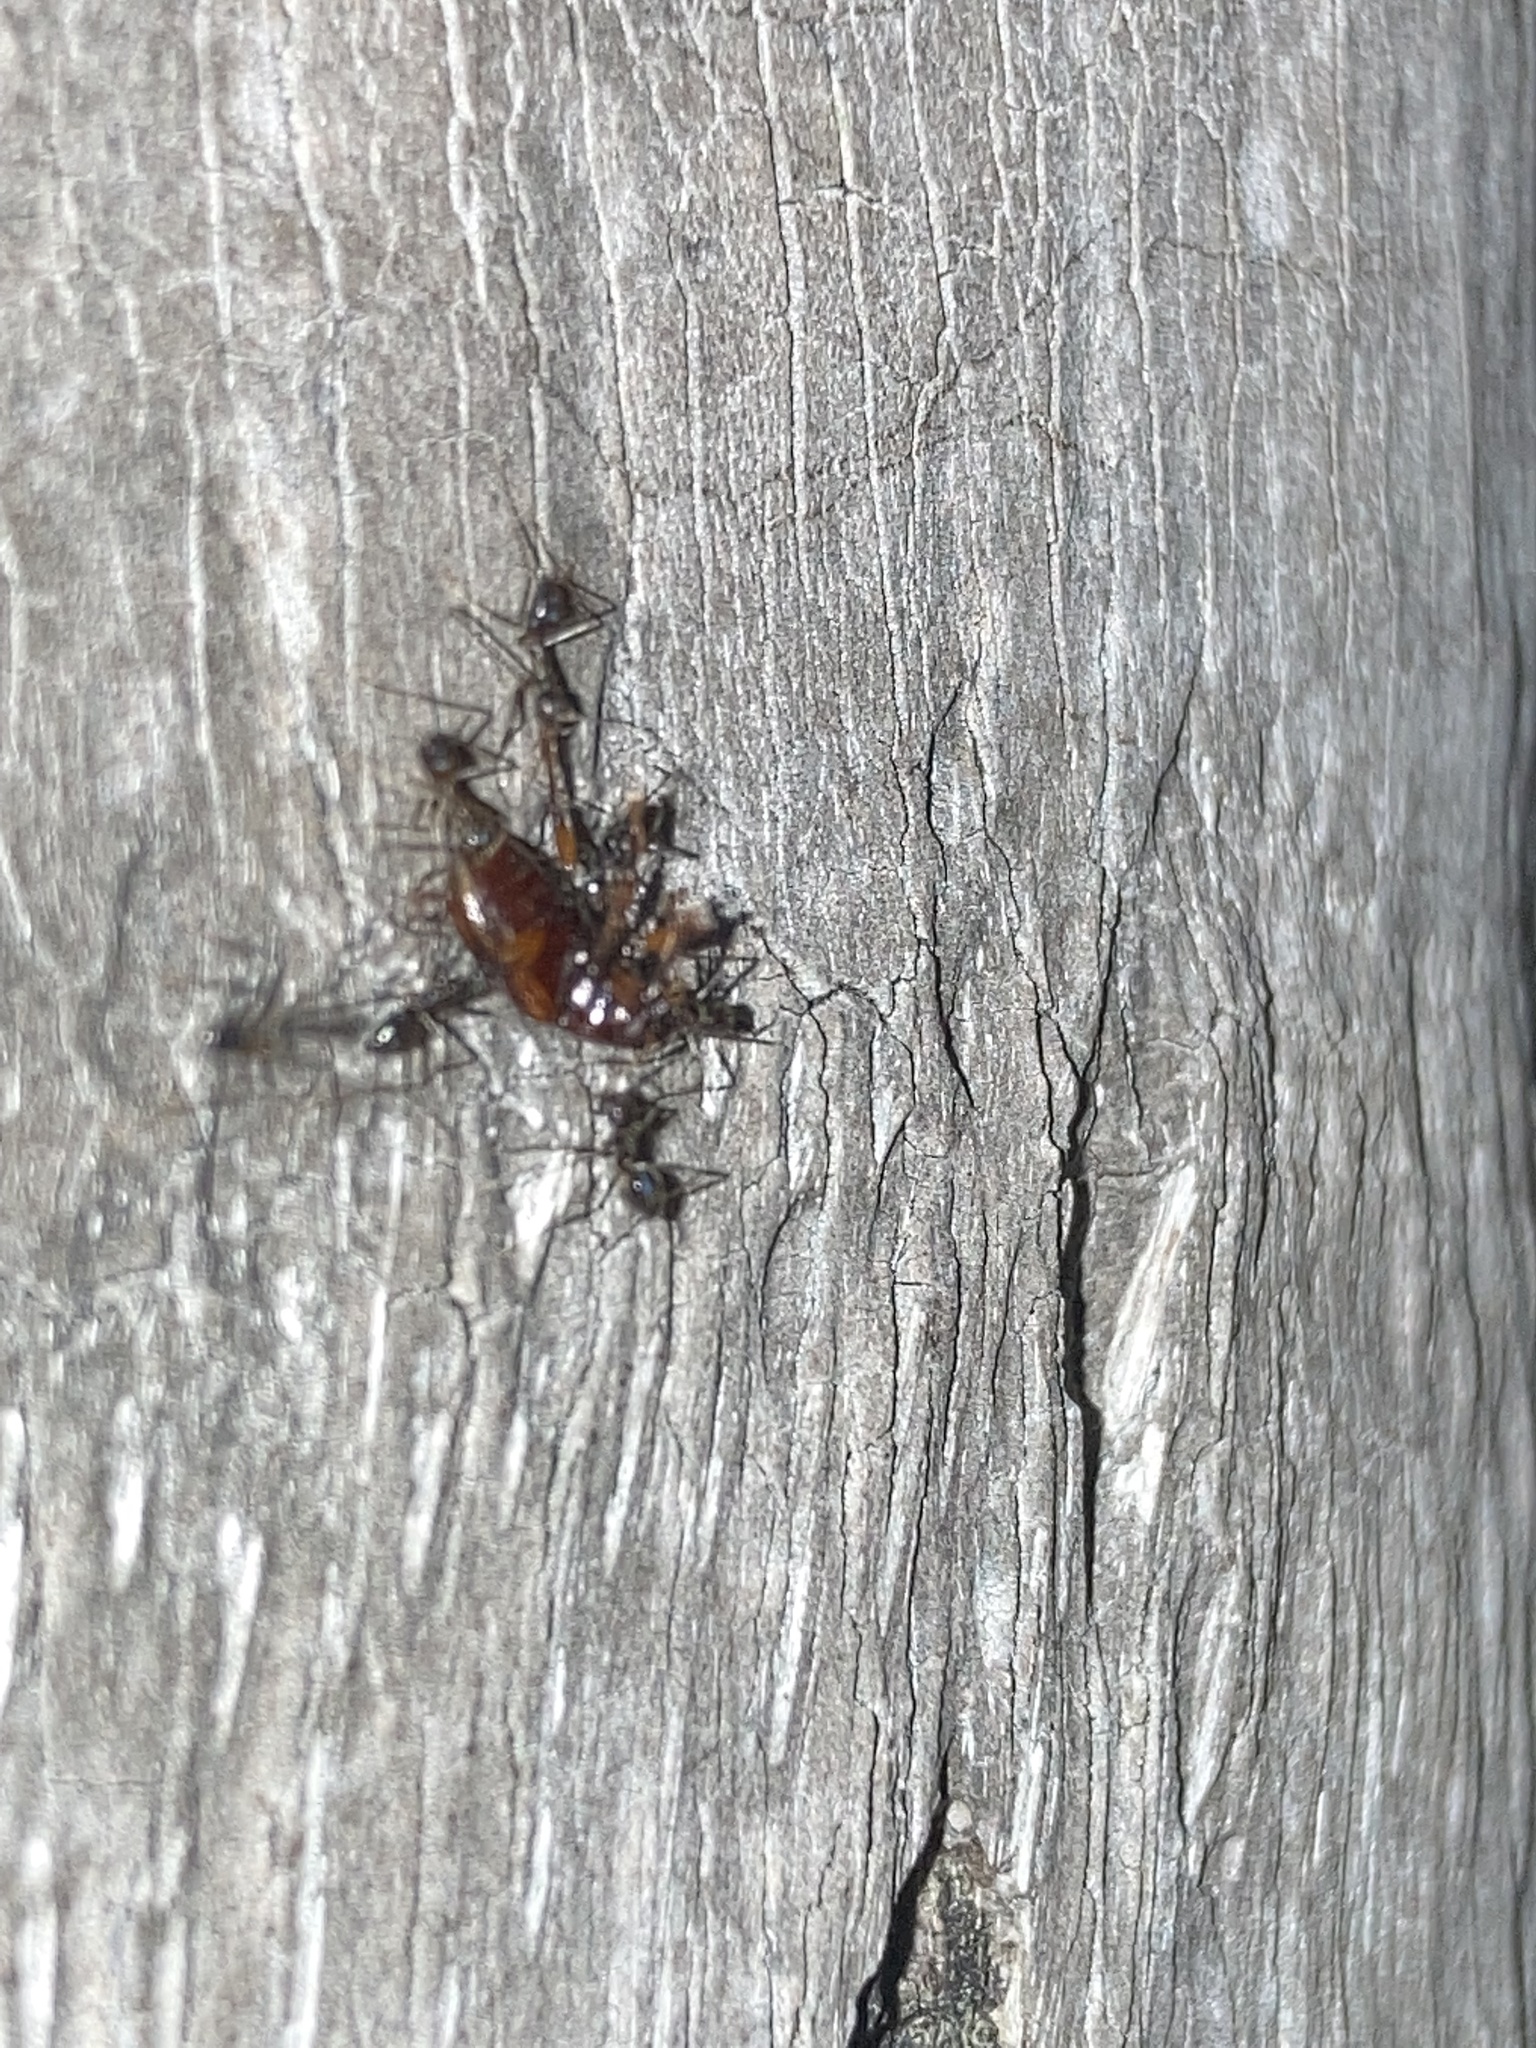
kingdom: Animalia
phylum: Arthropoda
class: Insecta
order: Hymenoptera
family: Formicidae
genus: Paratrechina
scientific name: Paratrechina longicornis
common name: Longhorned crazy ant
